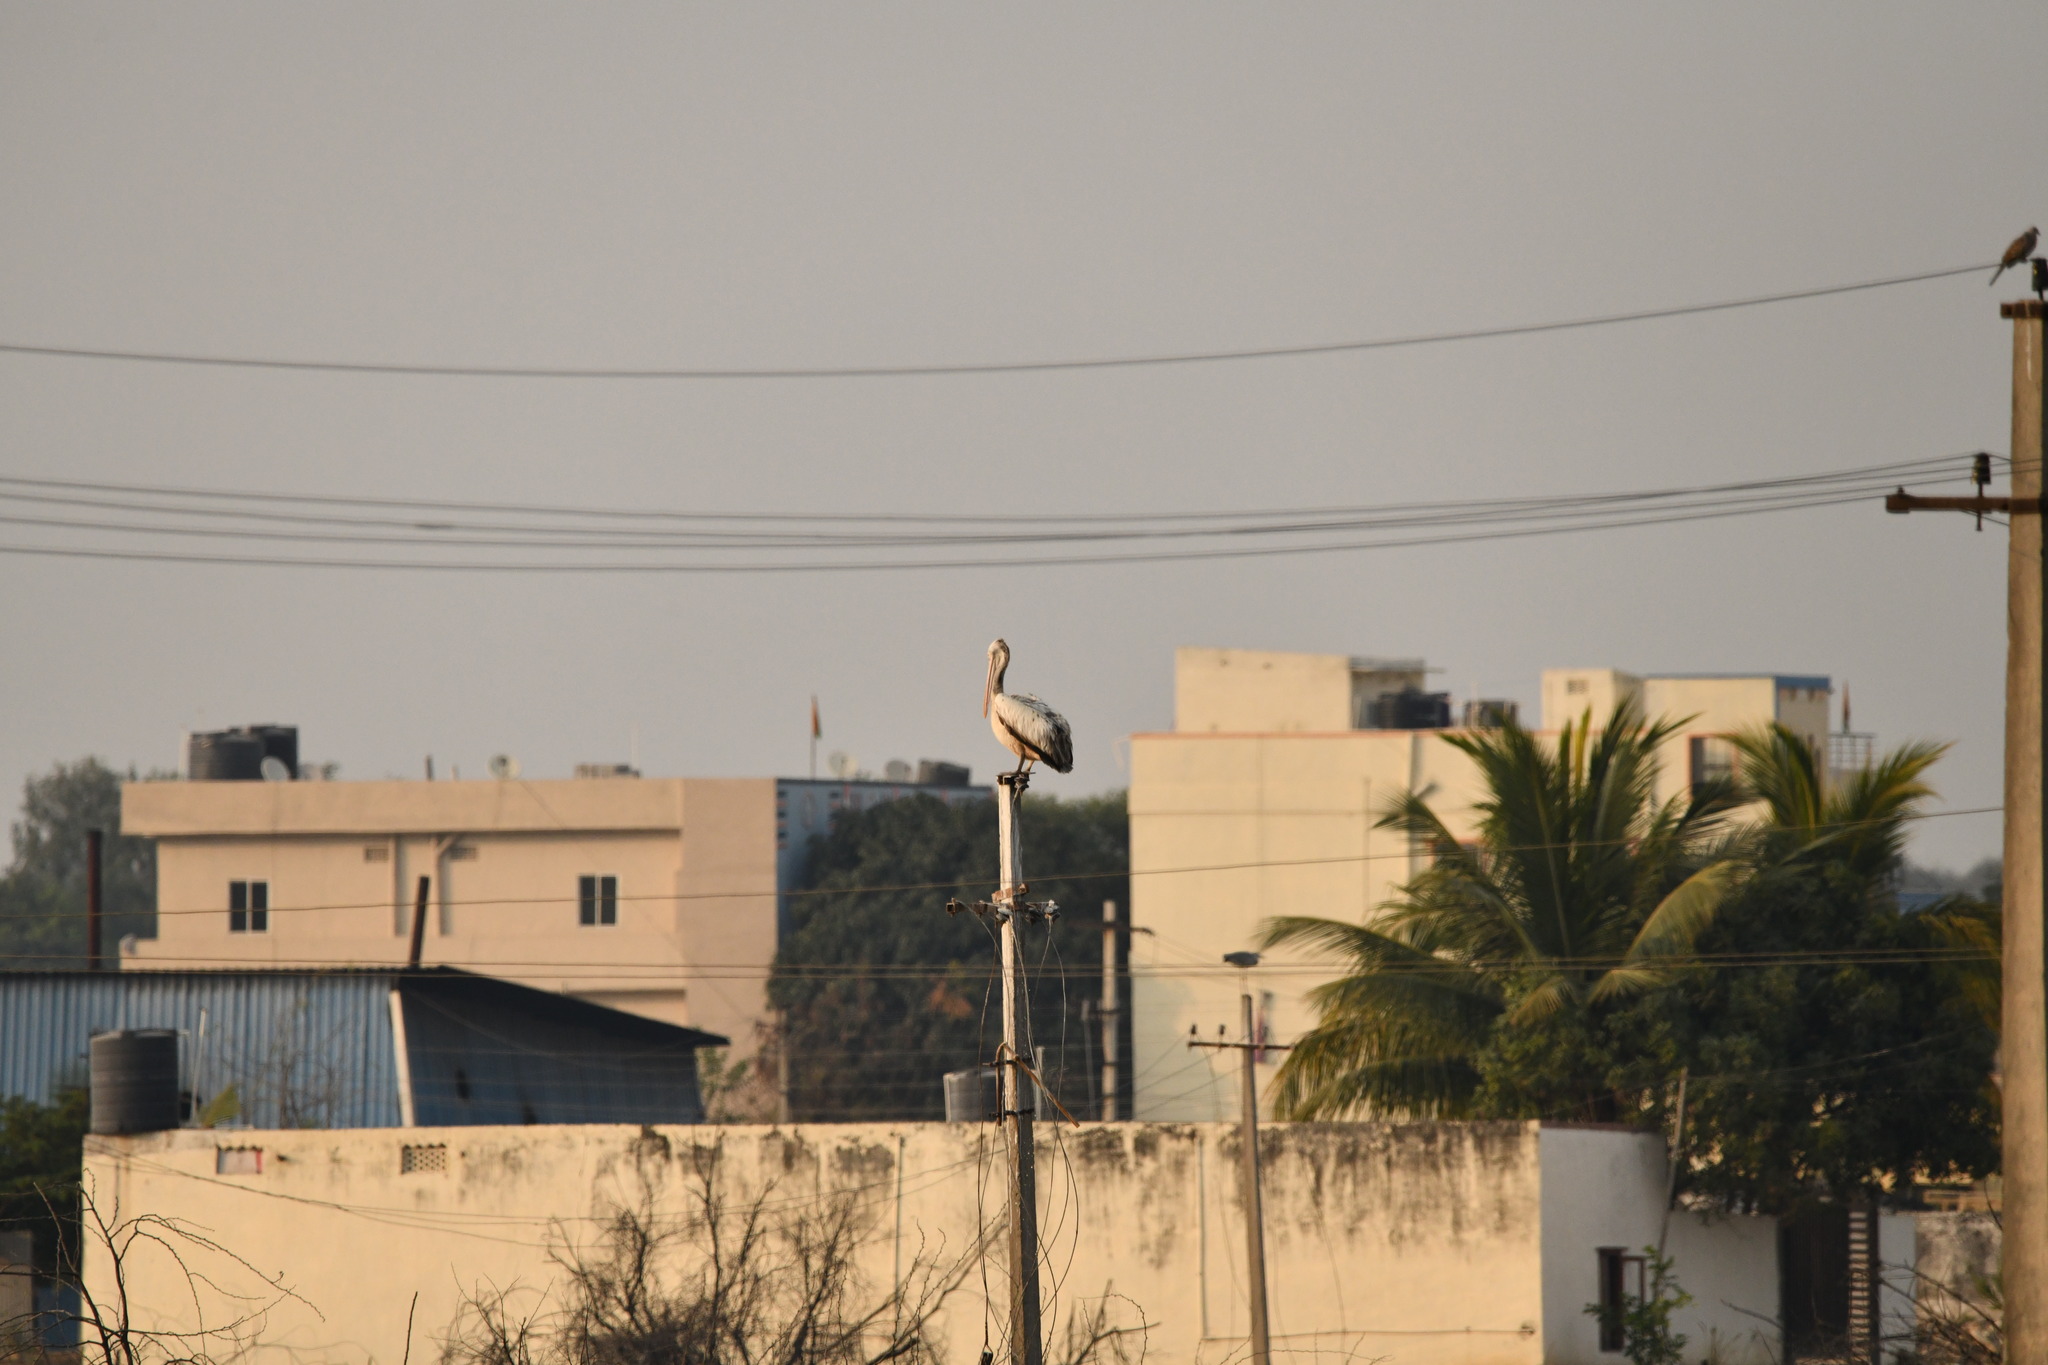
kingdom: Animalia
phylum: Chordata
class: Aves
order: Pelecaniformes
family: Pelecanidae
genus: Pelecanus
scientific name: Pelecanus philippensis
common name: Spot-billed pelican
